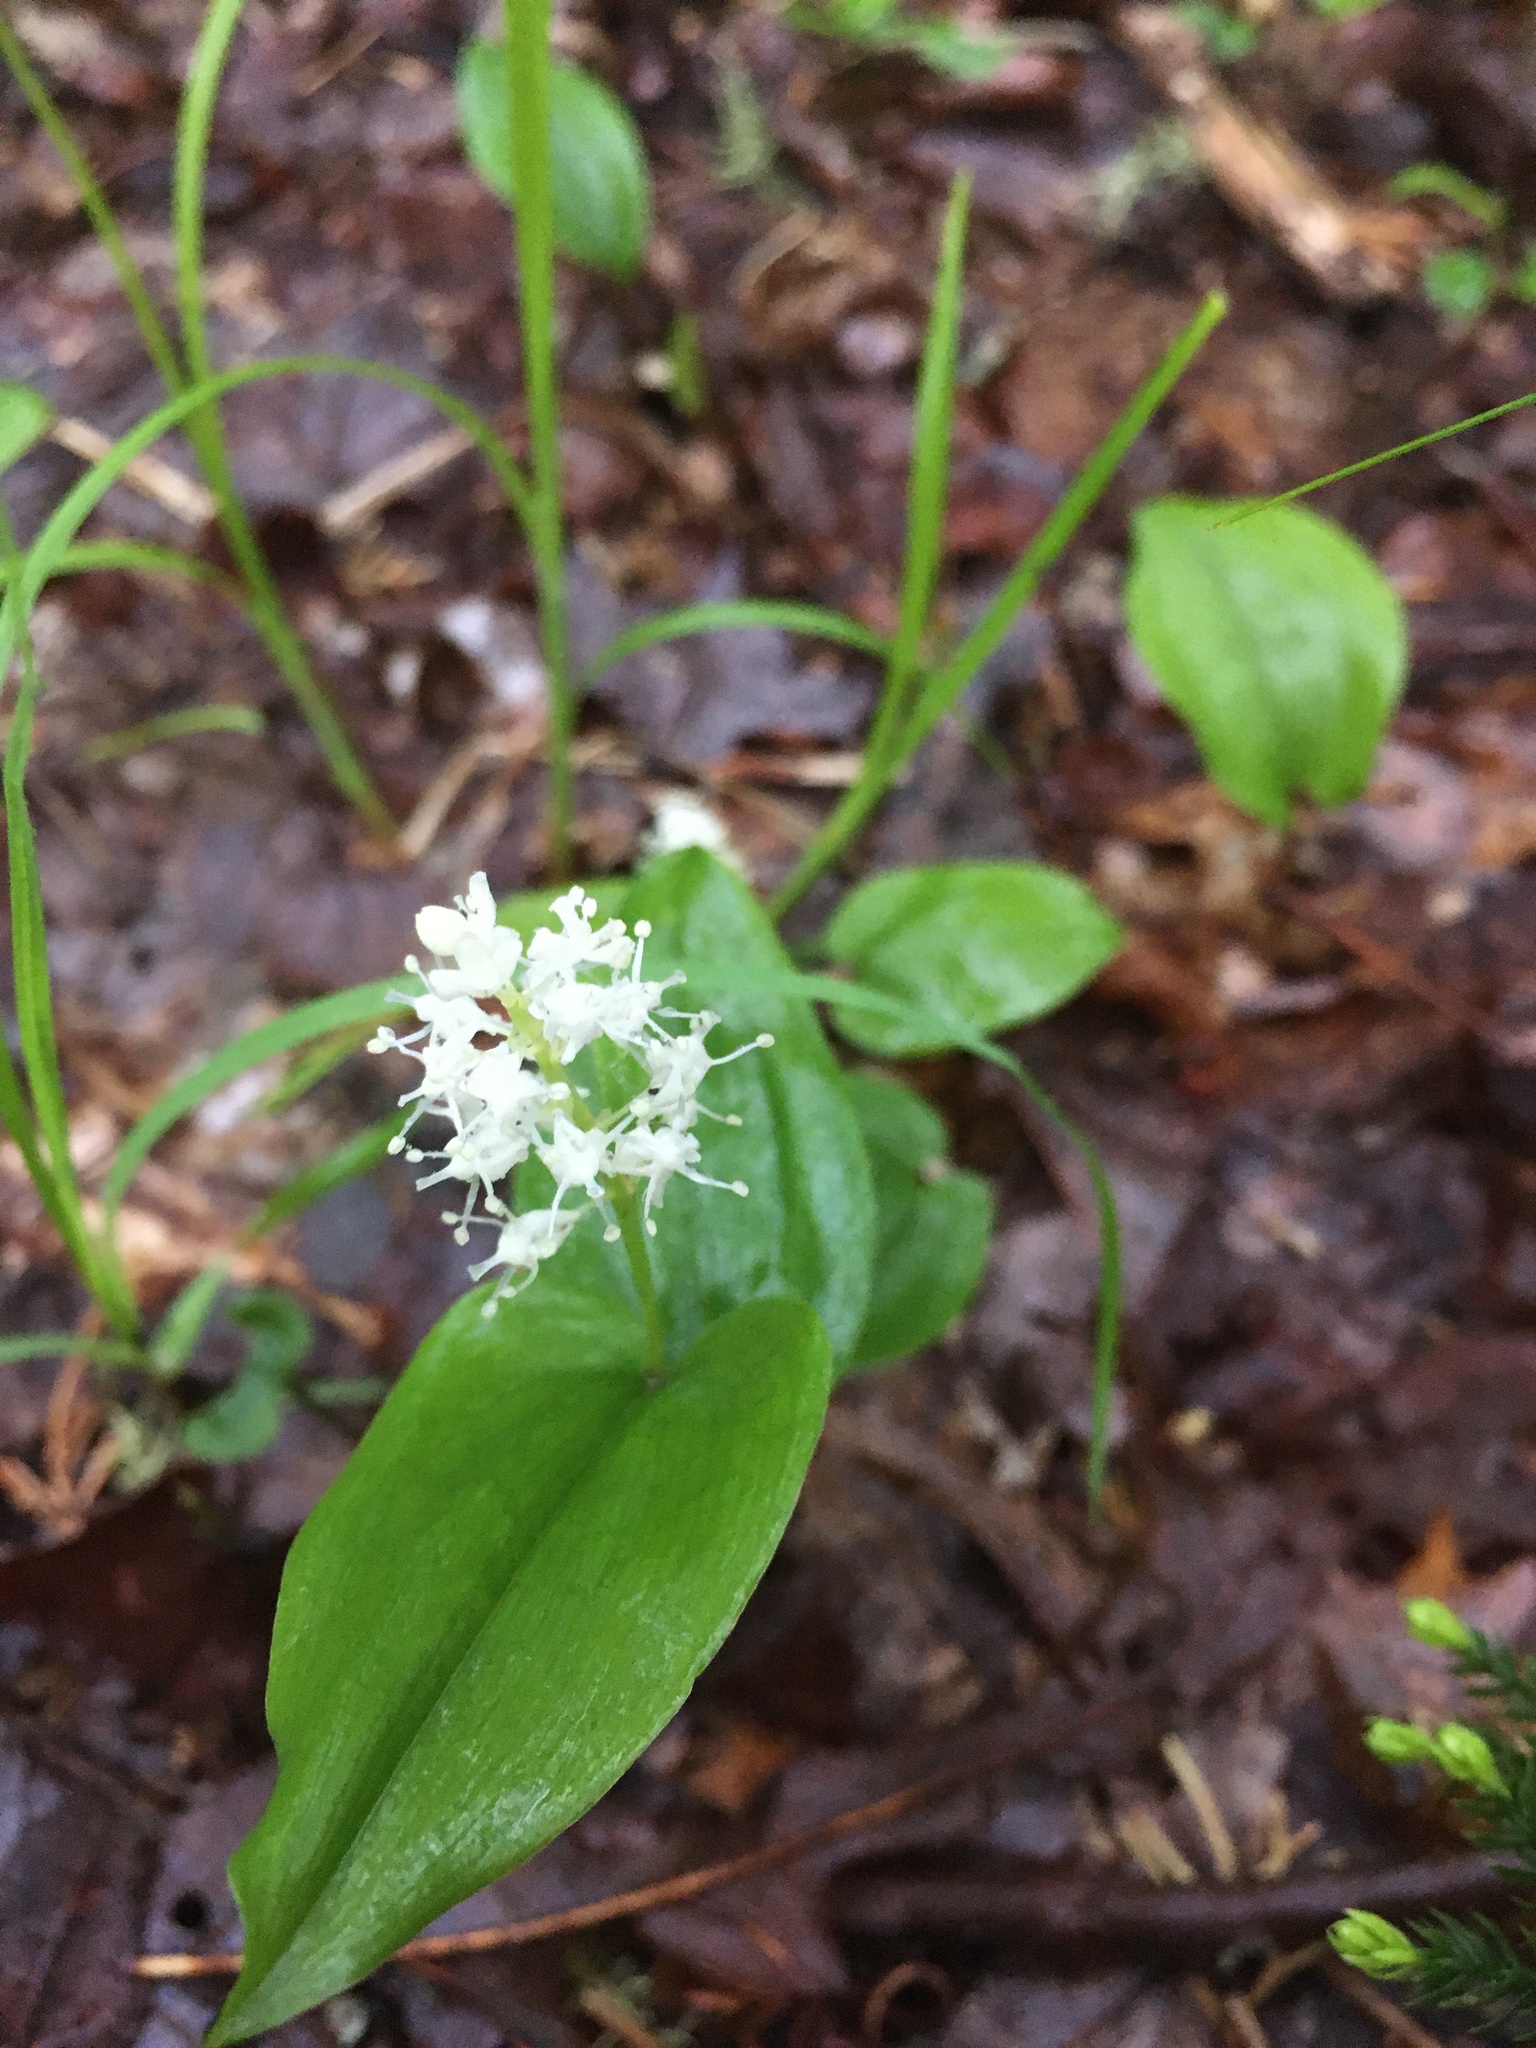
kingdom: Plantae
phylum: Tracheophyta
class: Liliopsida
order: Asparagales
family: Asparagaceae
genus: Maianthemum
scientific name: Maianthemum canadense
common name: False lily-of-the-valley
